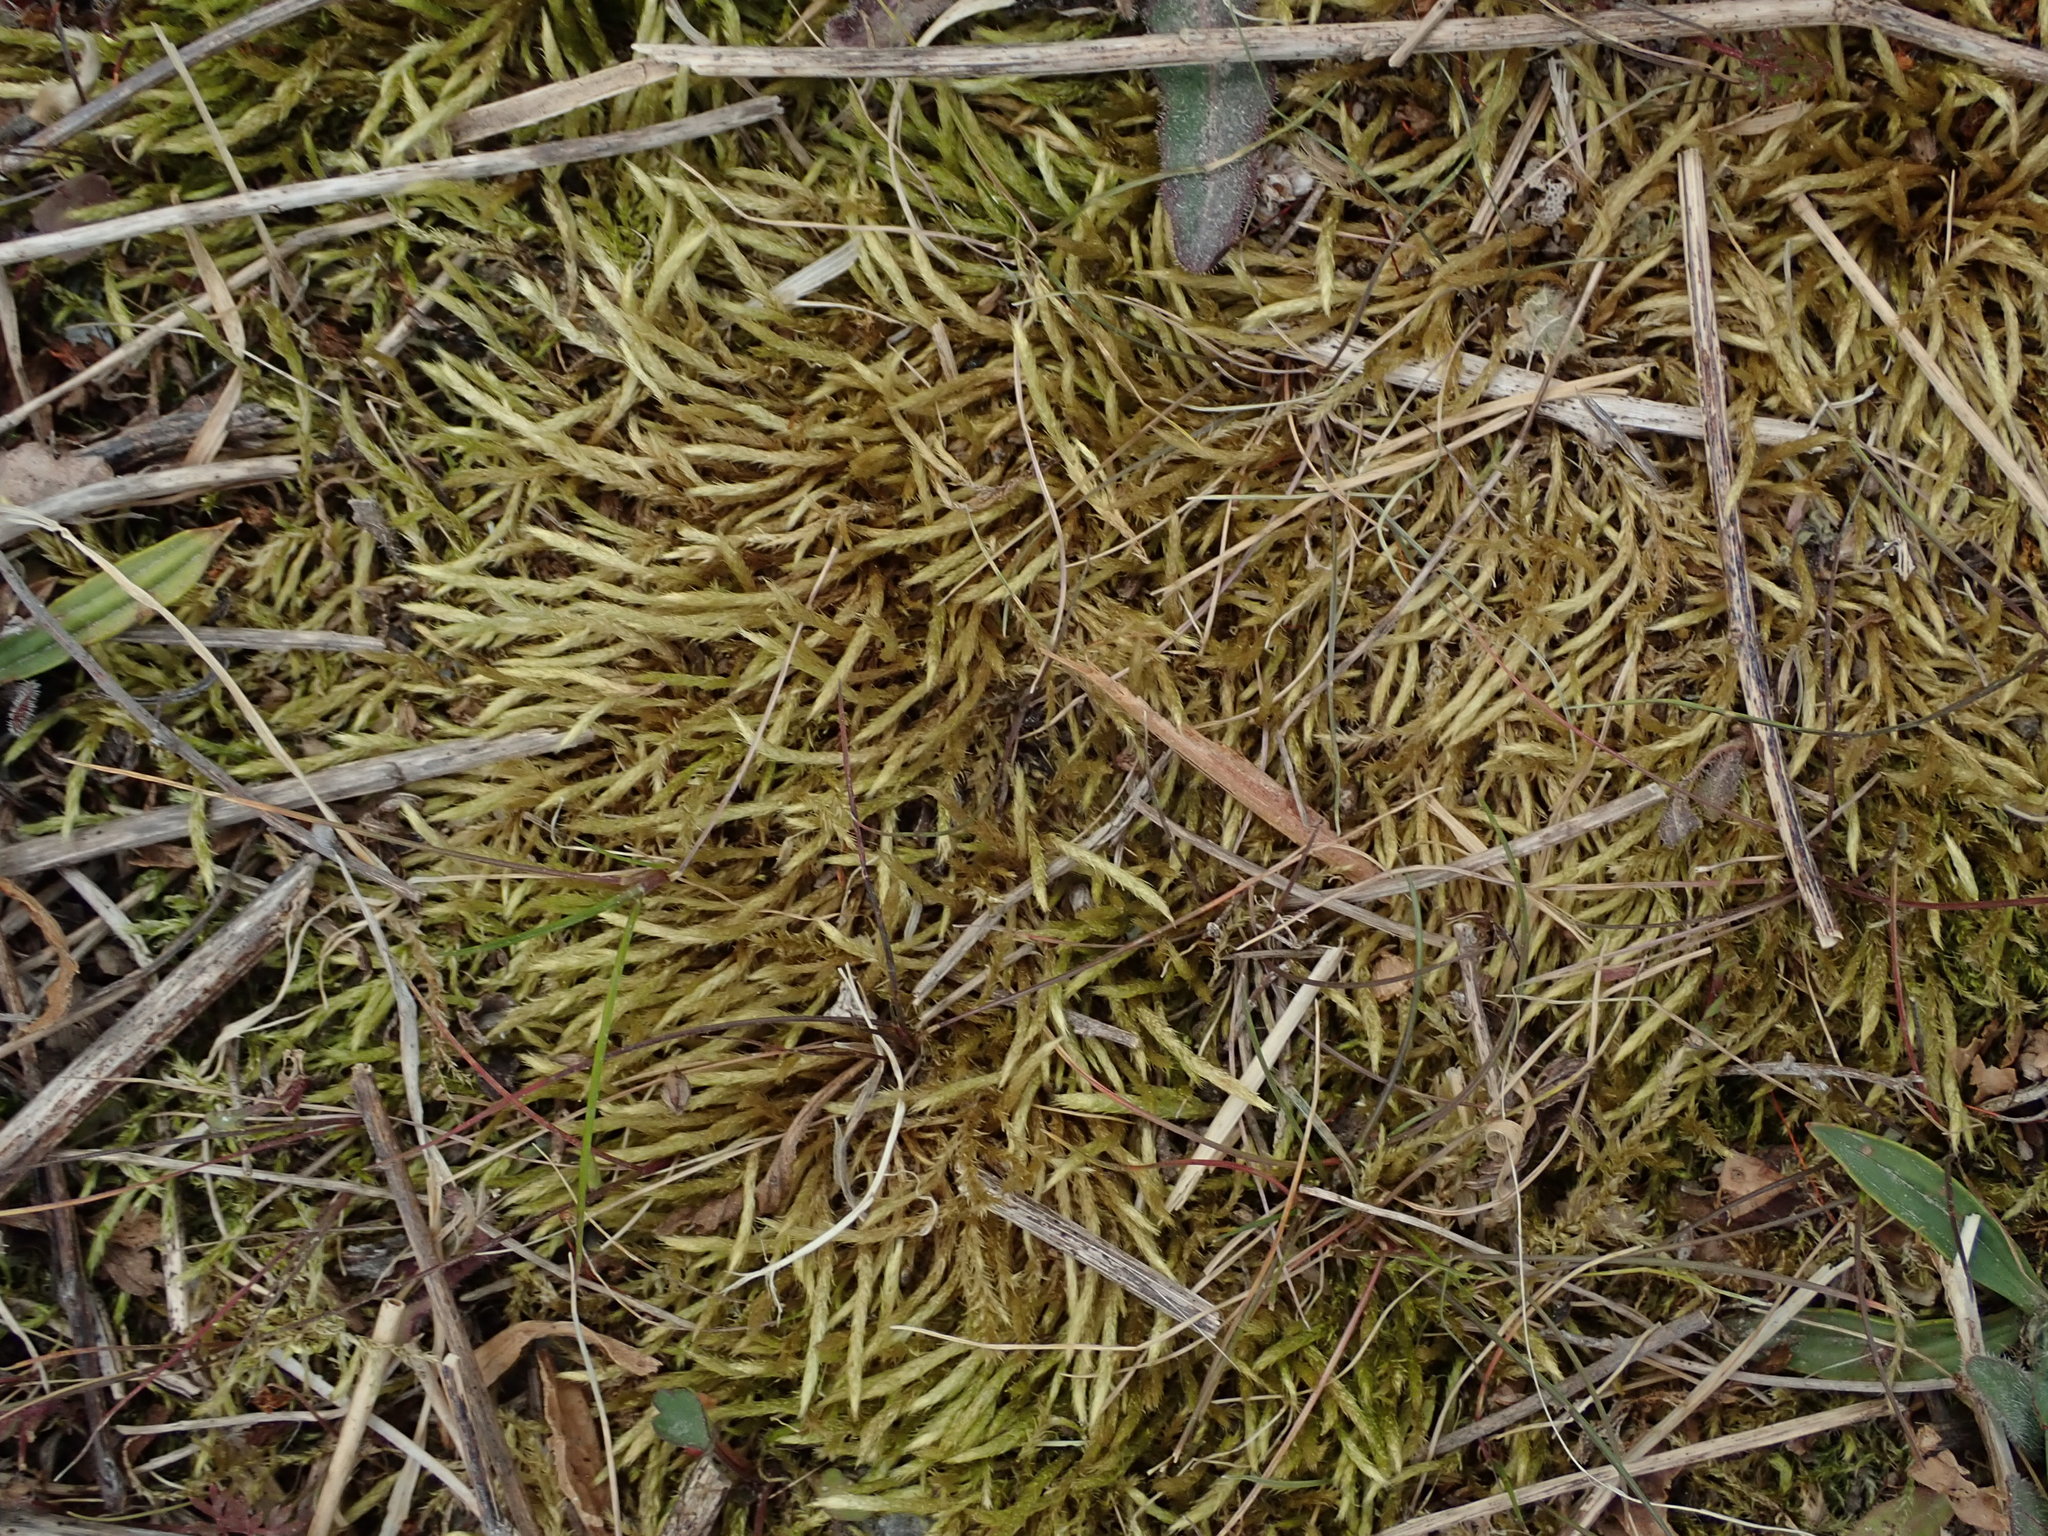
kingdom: Plantae
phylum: Bryophyta
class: Bryopsida
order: Hypnales
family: Brachytheciaceae
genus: Brachythecium
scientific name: Brachythecium albicans
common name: Whitish ragged moss
